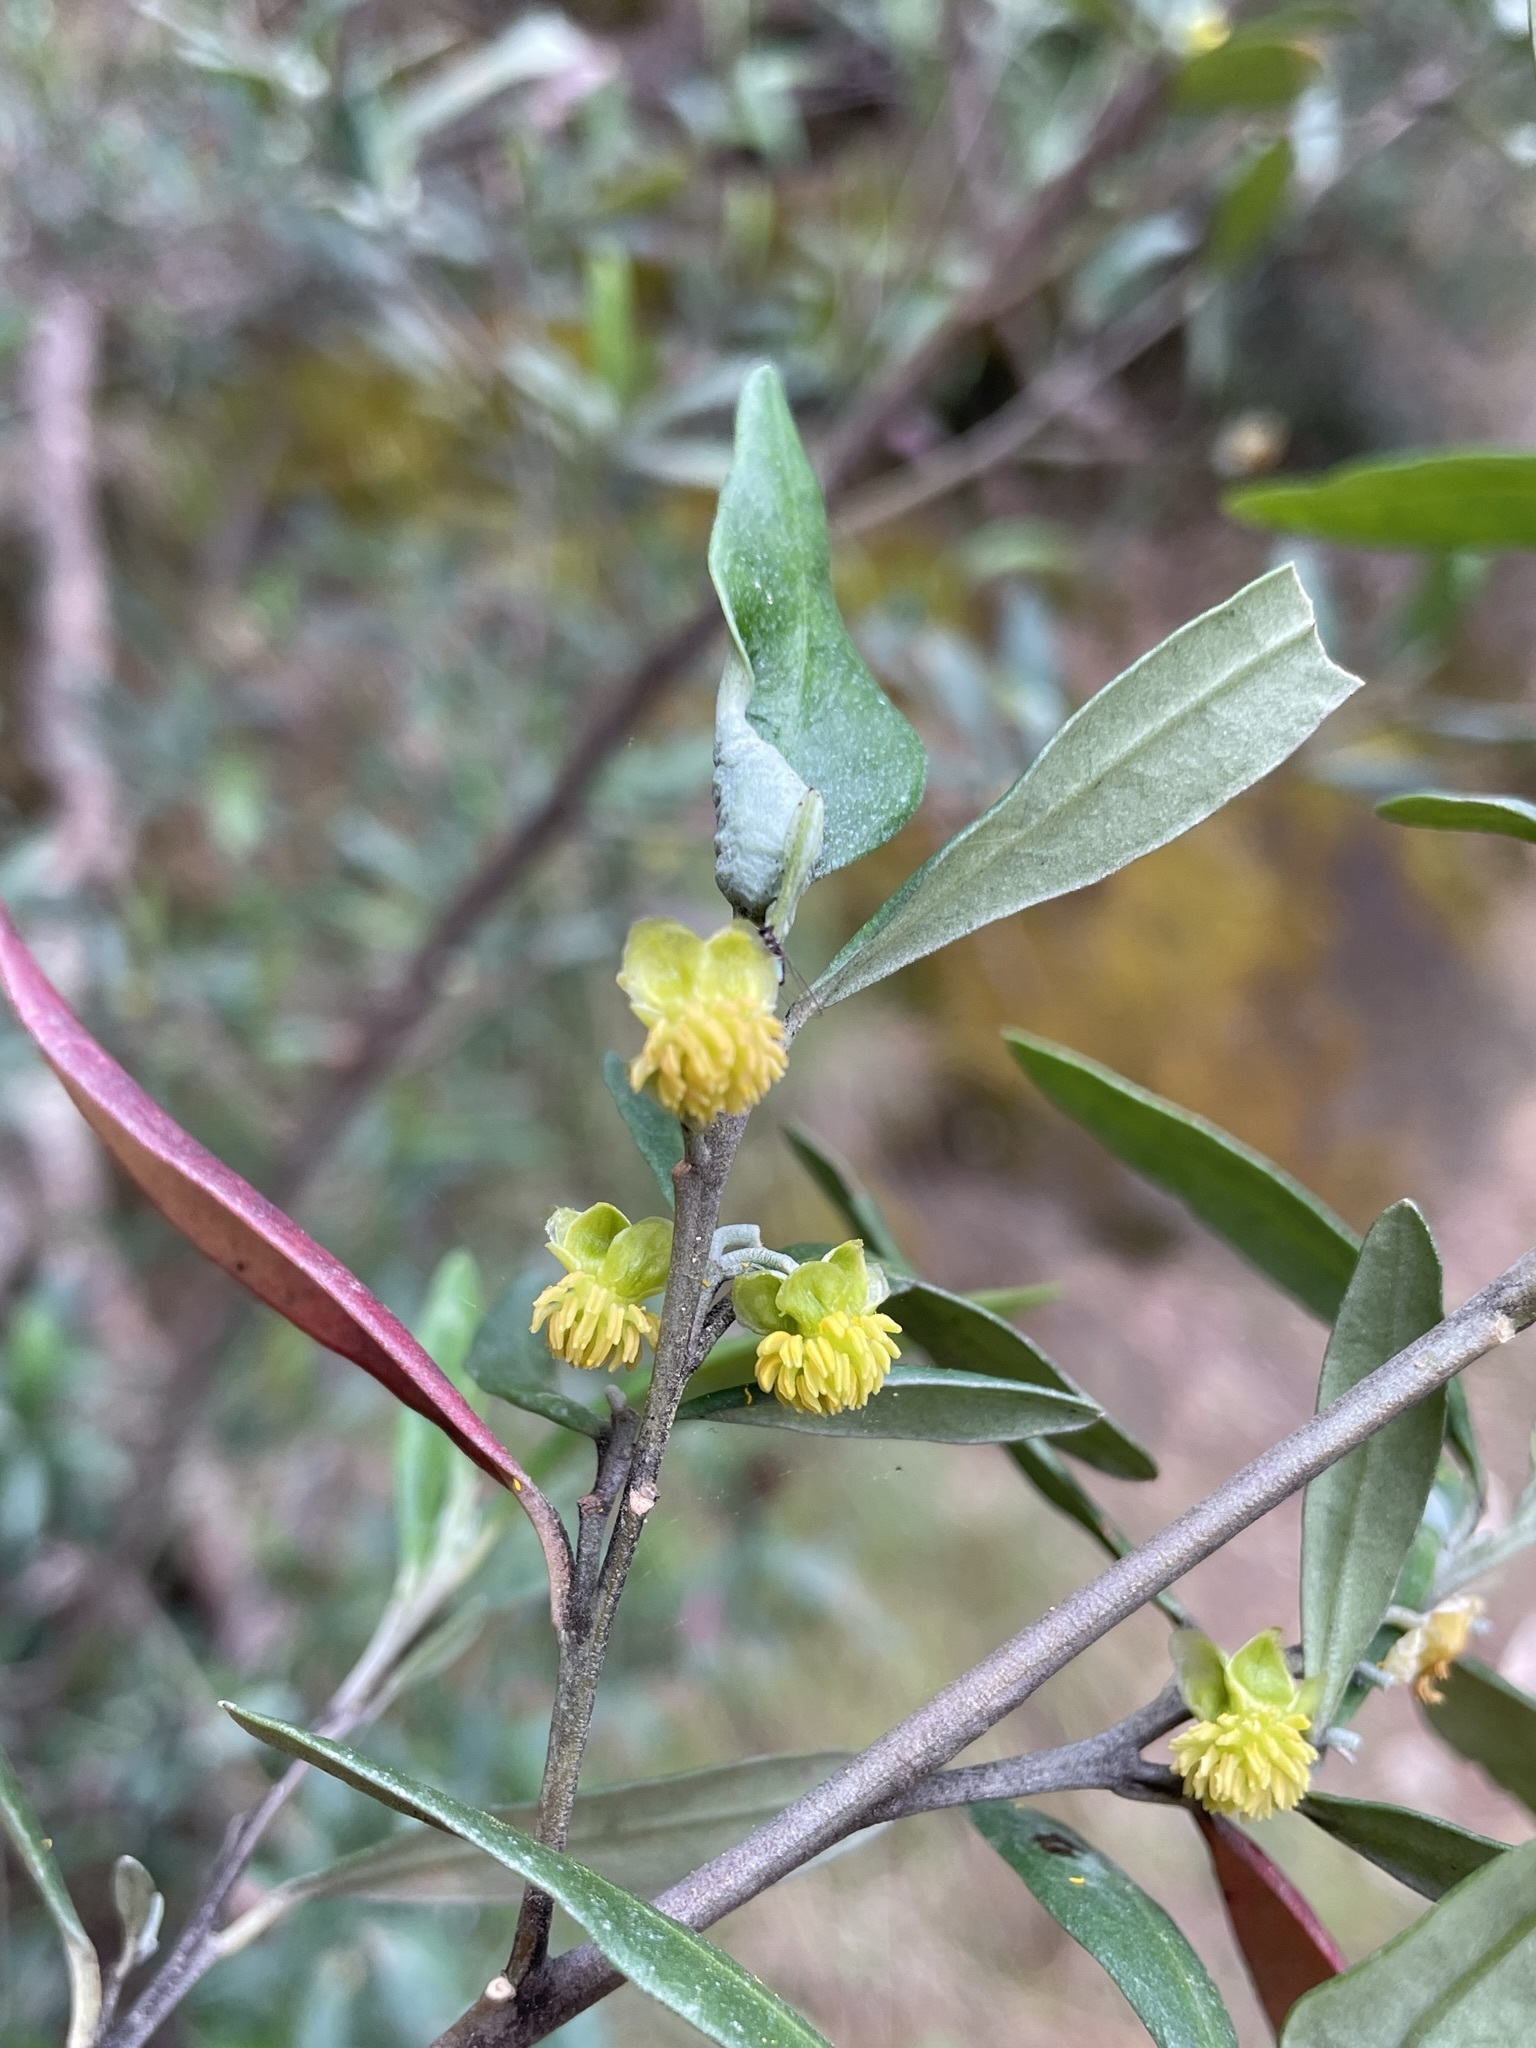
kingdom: Plantae
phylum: Tracheophyta
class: Magnoliopsida
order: Malpighiales
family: Euphorbiaceae
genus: Beyeria
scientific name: Beyeria viscosa
